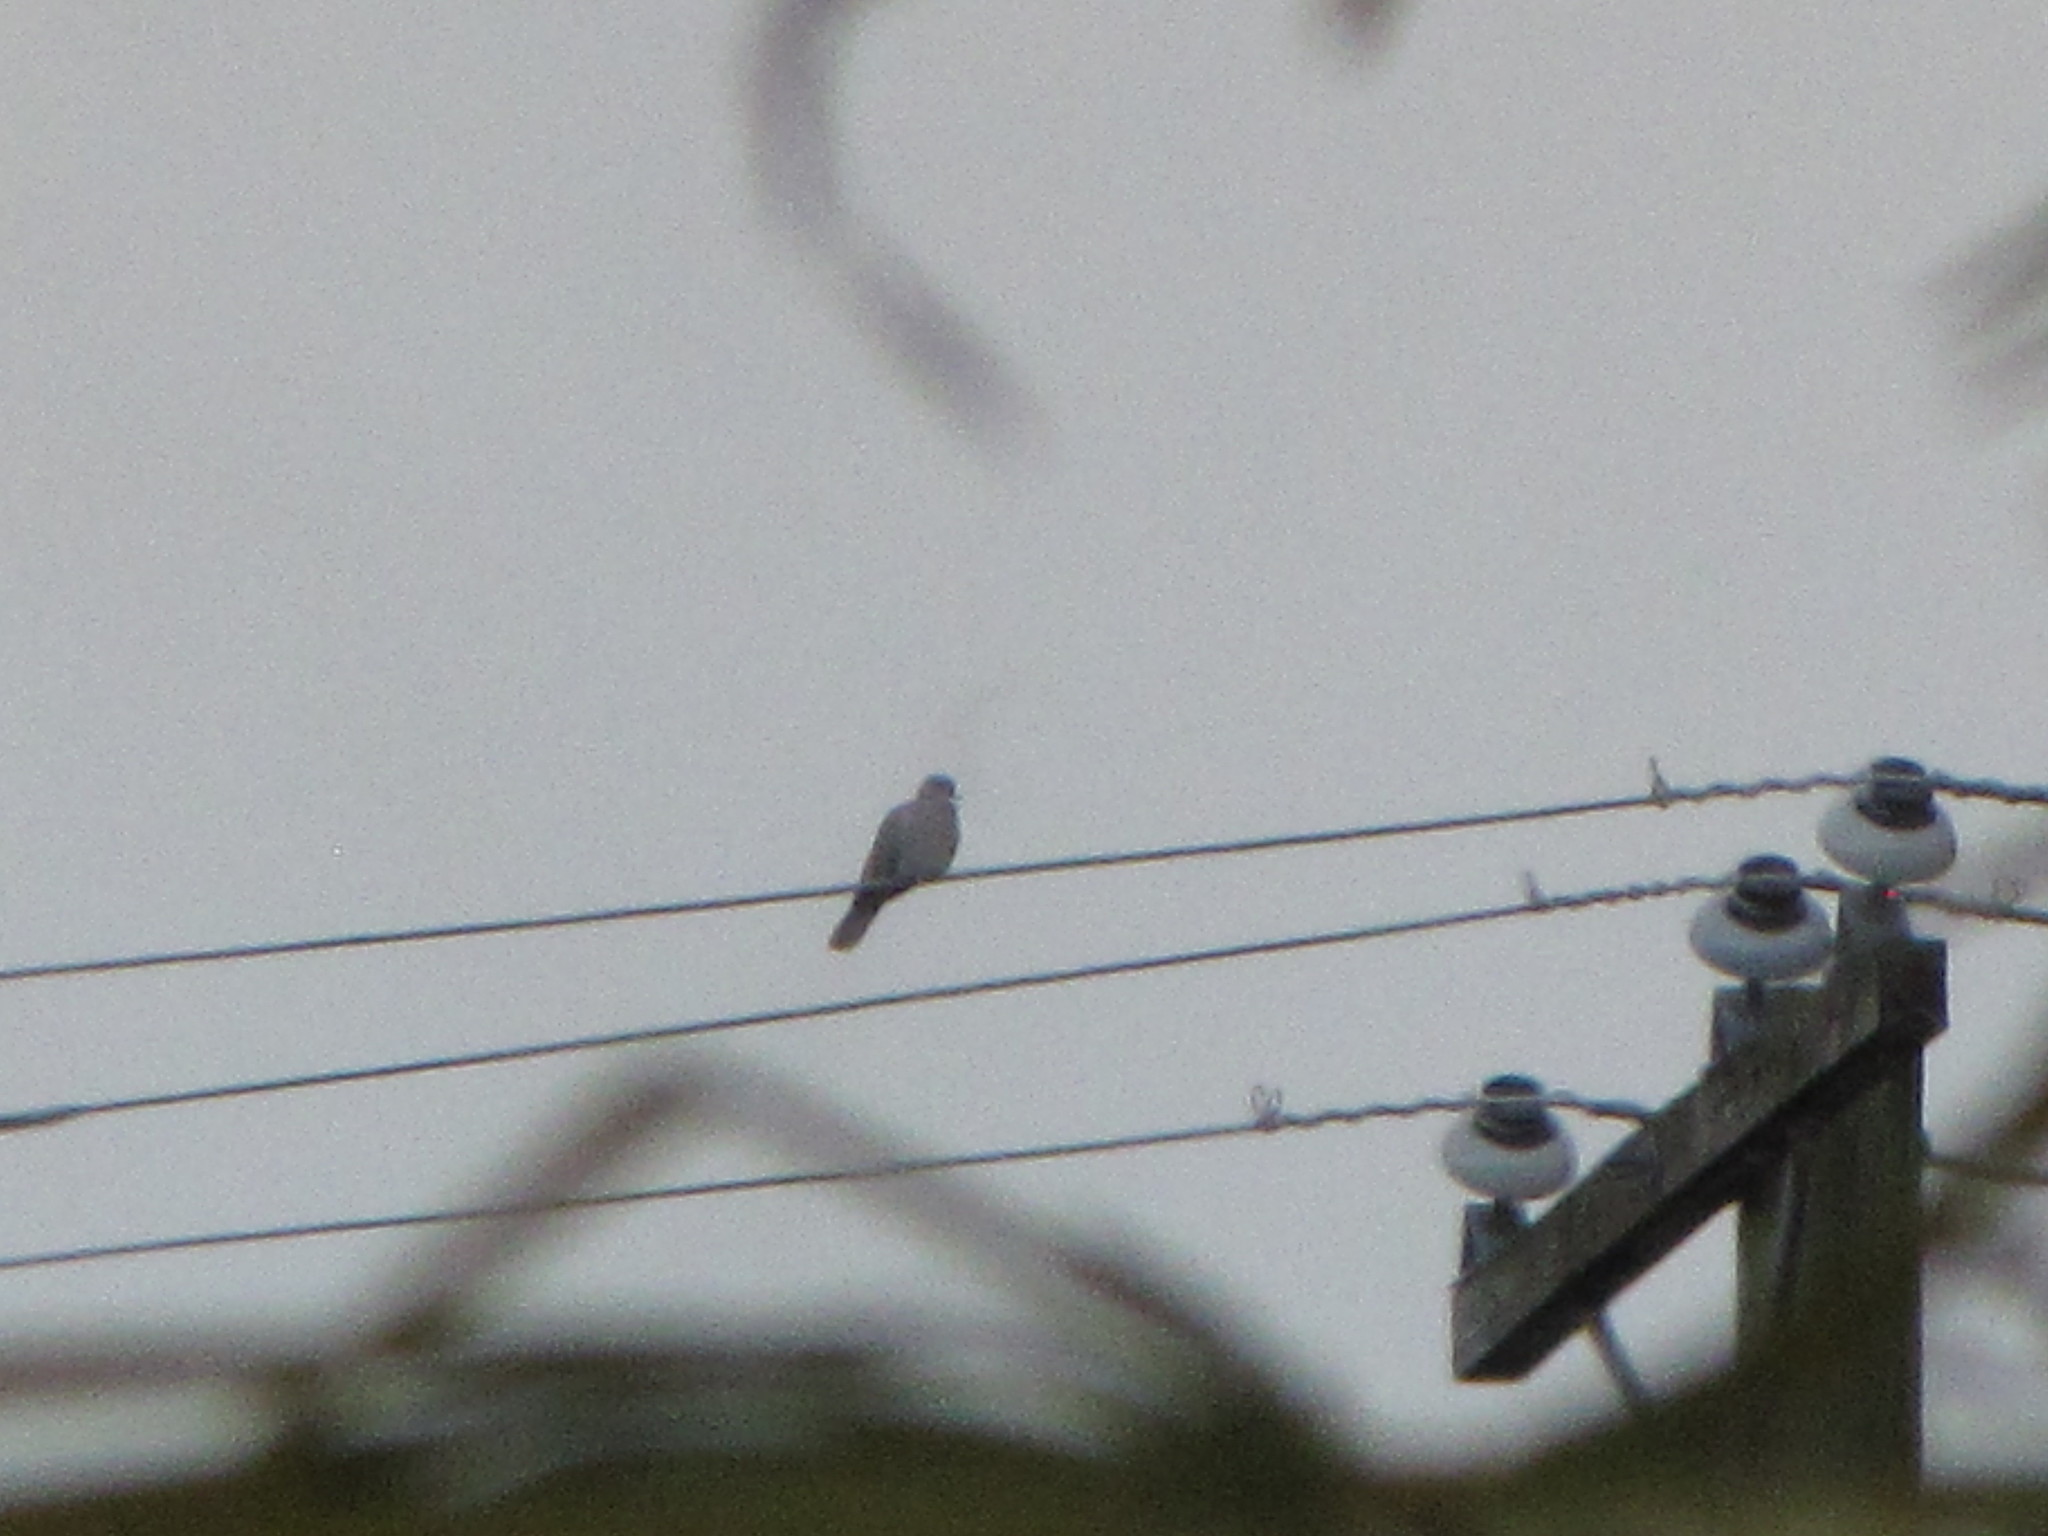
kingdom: Animalia
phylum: Chordata
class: Aves
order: Columbiformes
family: Columbidae
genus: Streptopelia
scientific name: Streptopelia decaocto
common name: Eurasian collared dove
